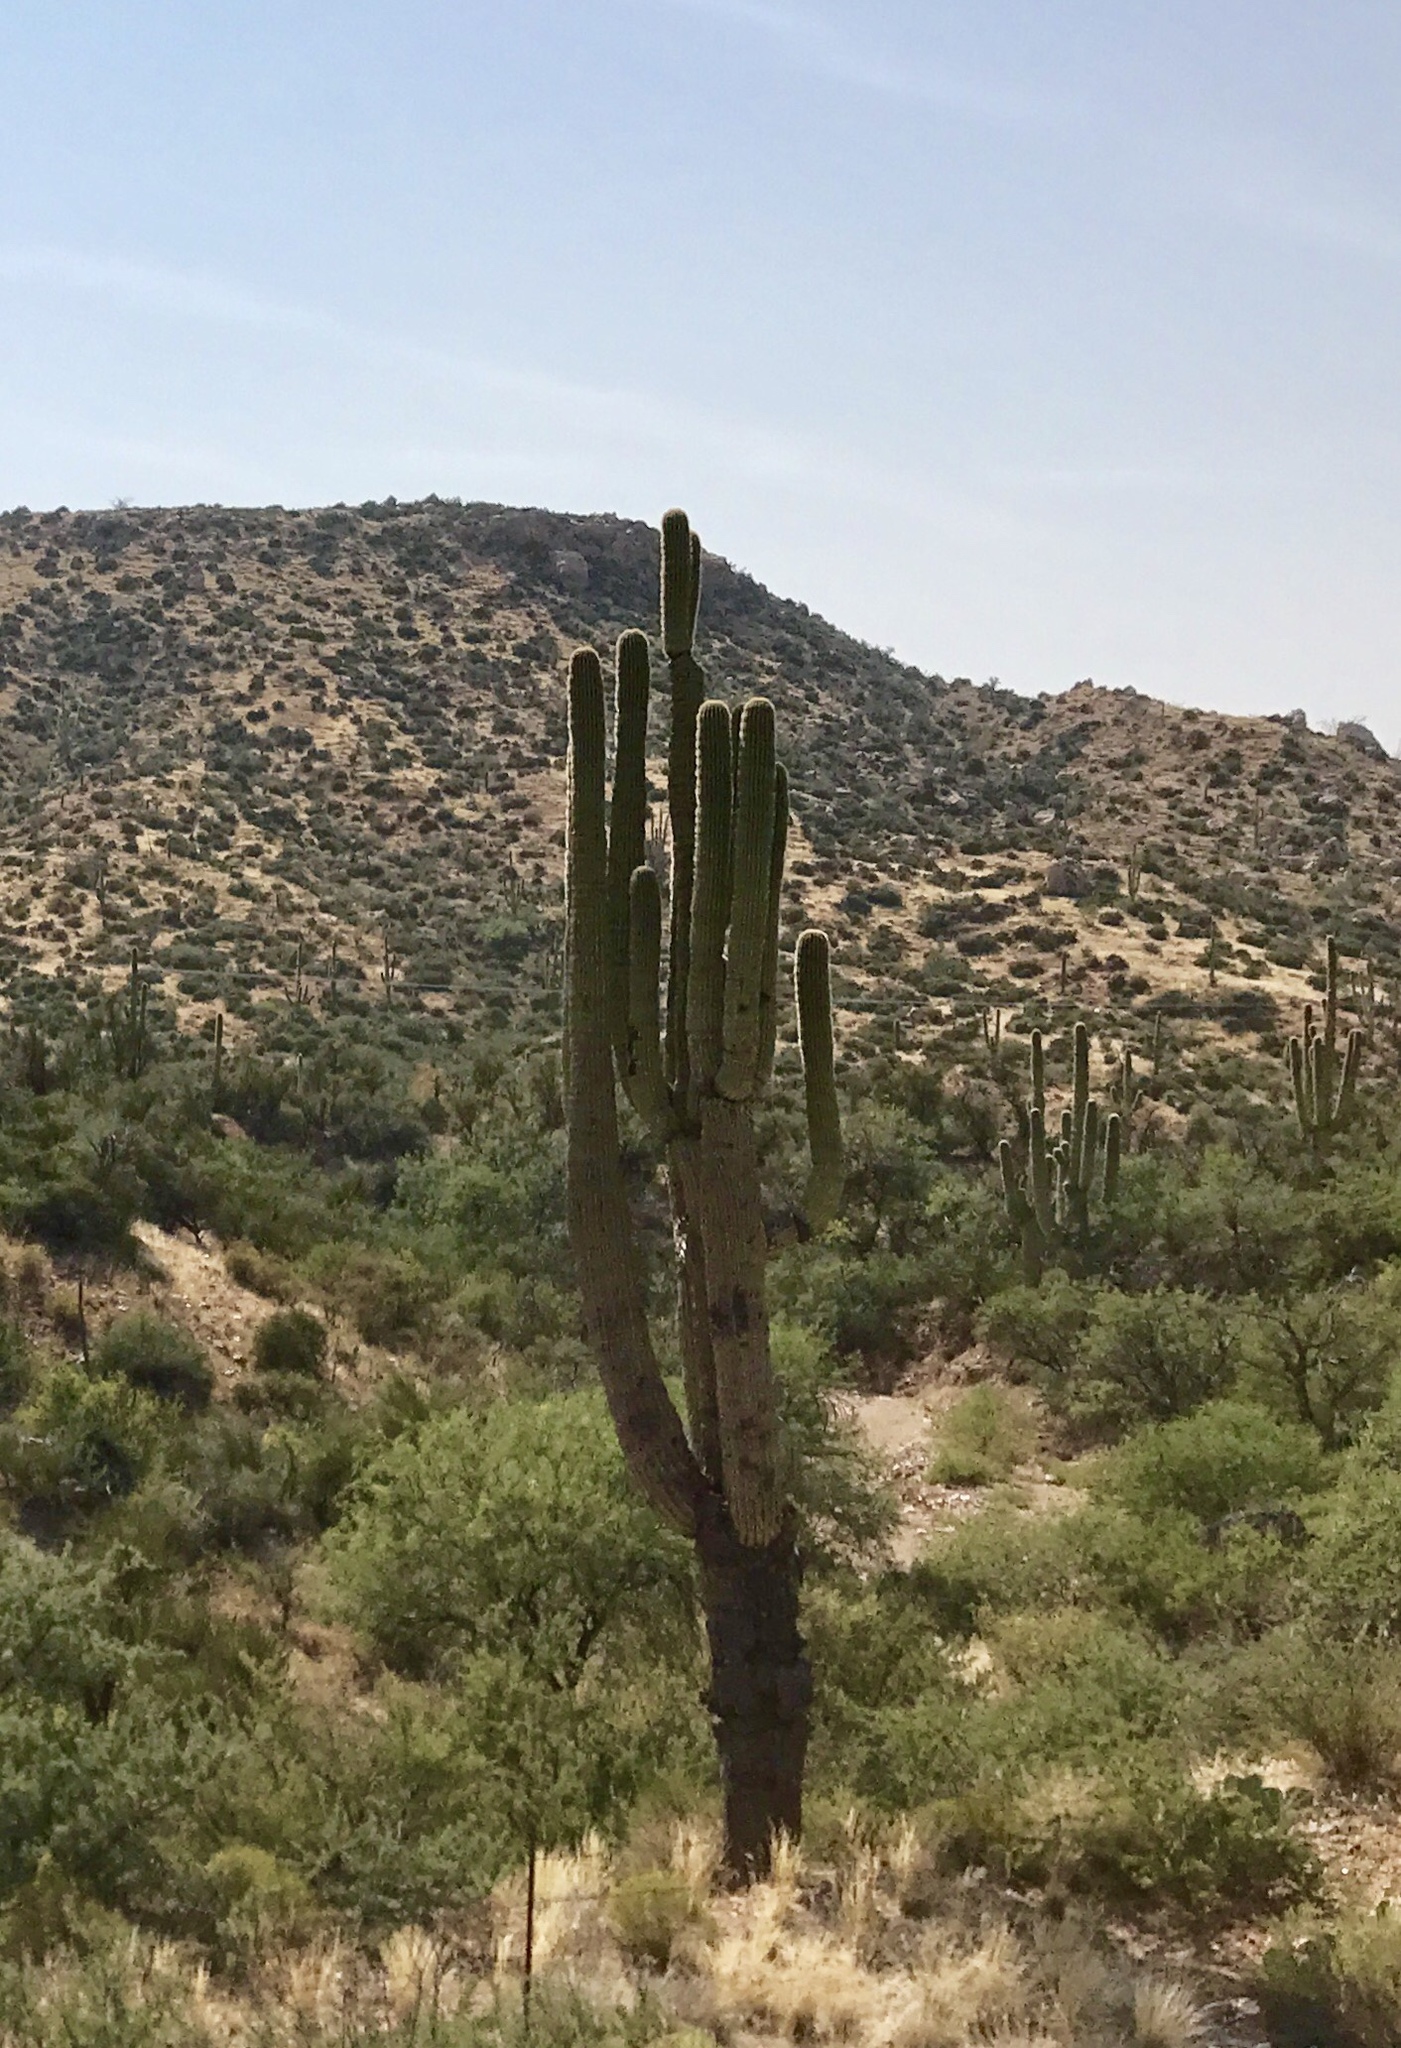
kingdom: Plantae
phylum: Tracheophyta
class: Magnoliopsida
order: Caryophyllales
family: Cactaceae
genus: Carnegiea
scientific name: Carnegiea gigantea
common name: Saguaro
